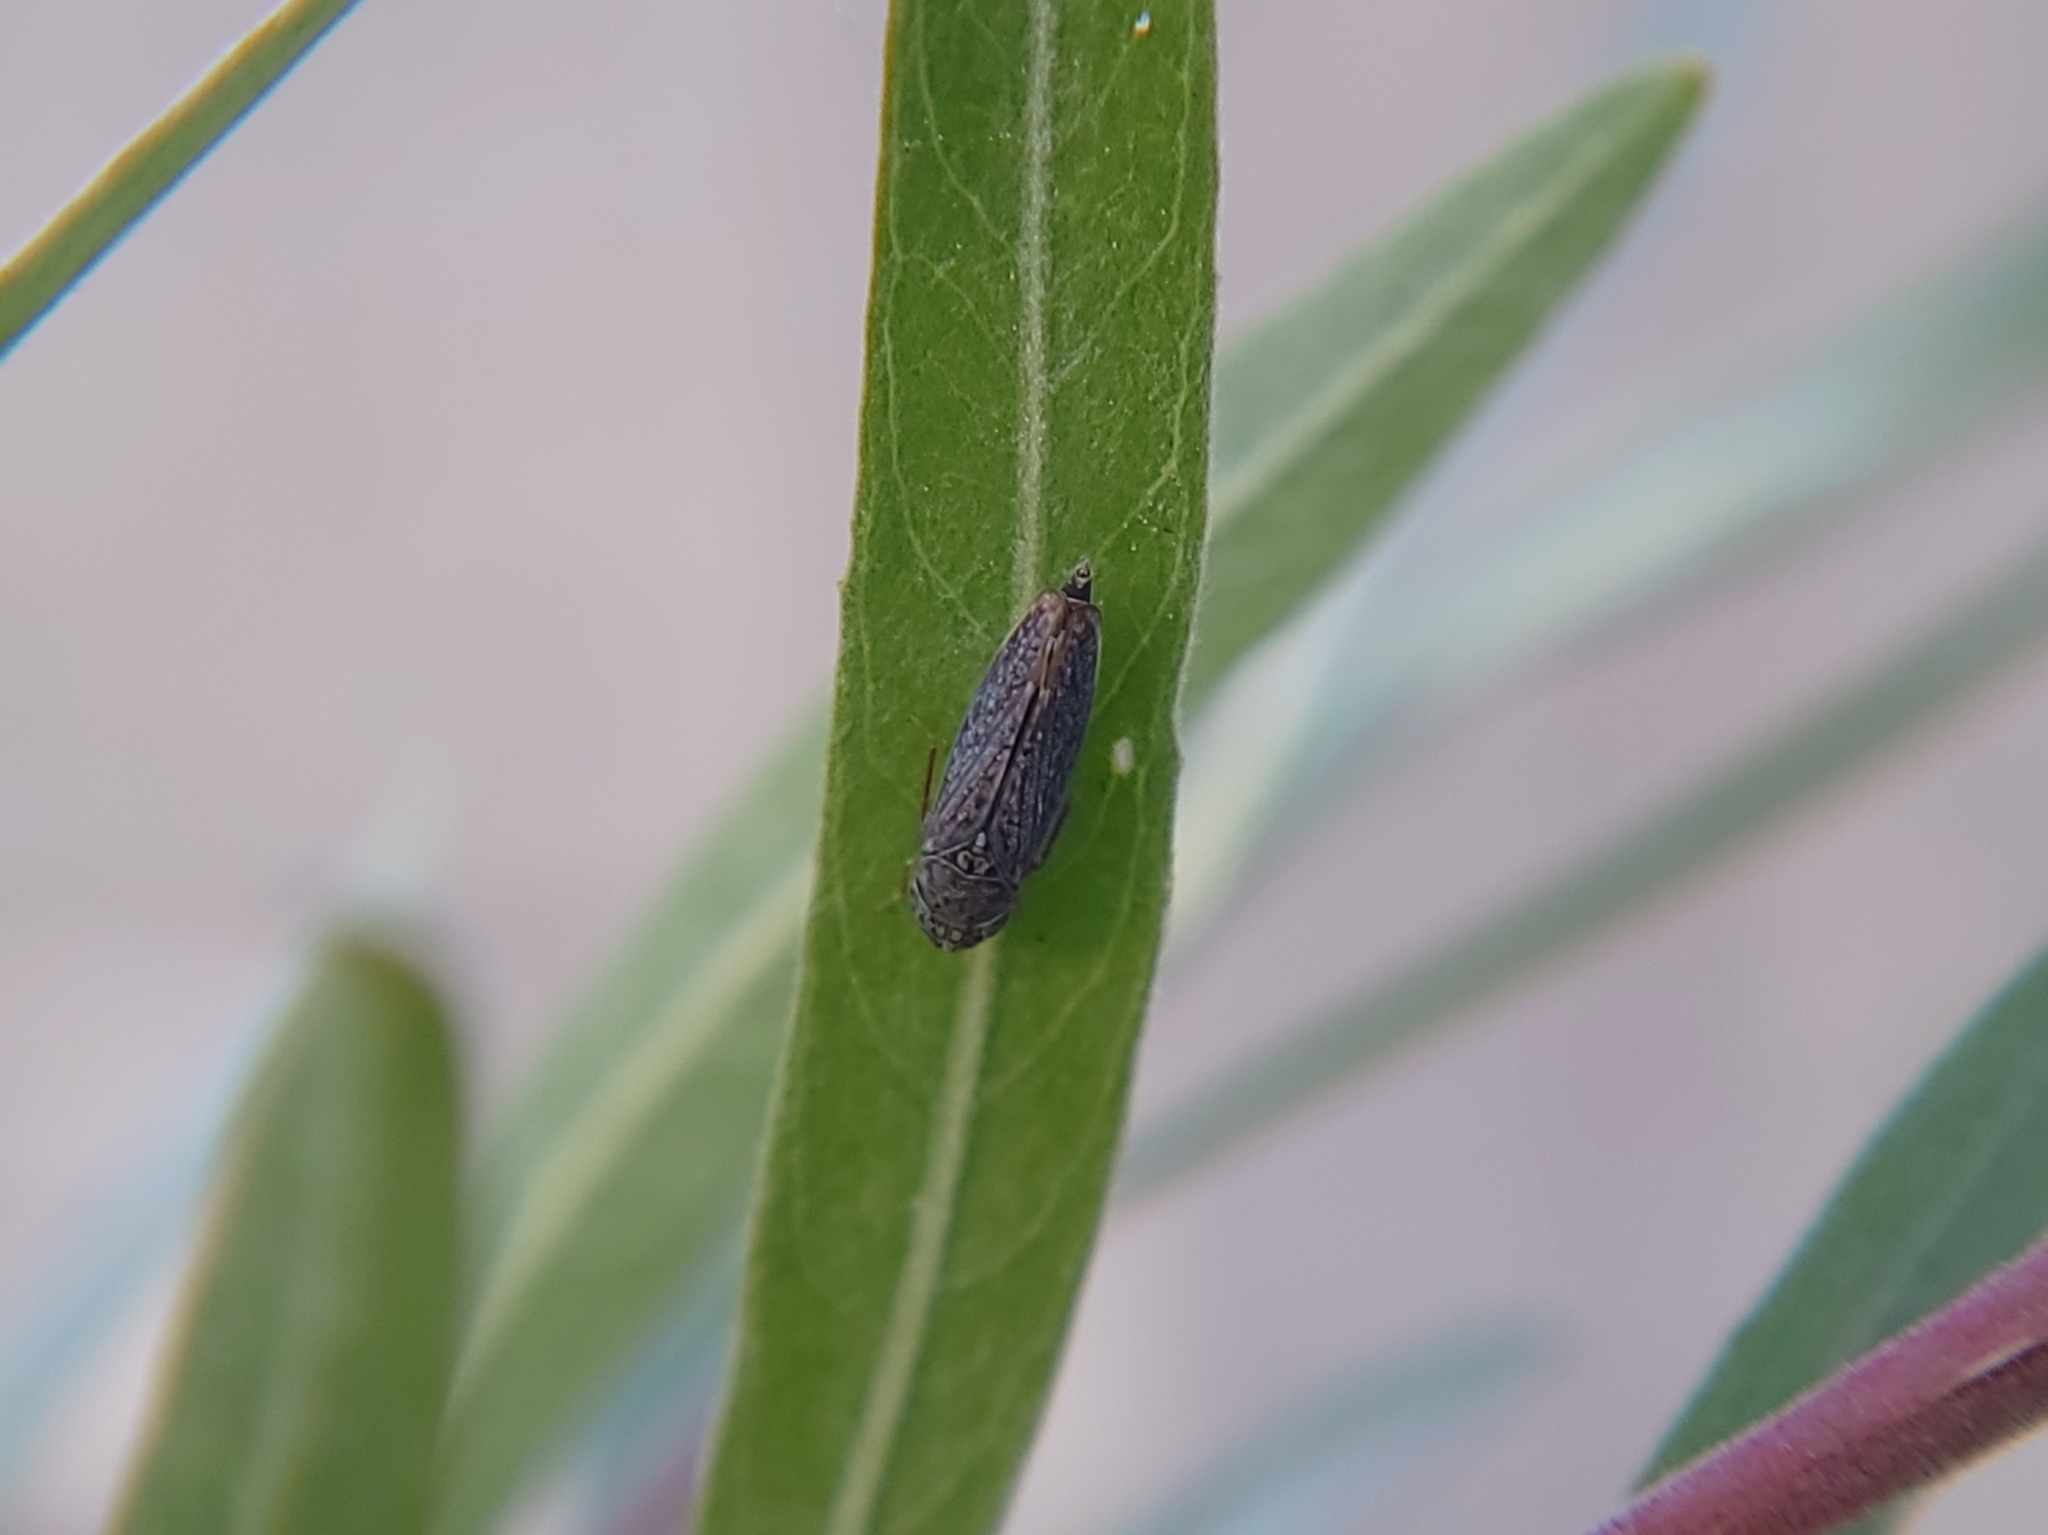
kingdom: Animalia
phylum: Arthropoda
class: Insecta
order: Hemiptera
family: Cicadellidae
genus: Graphocephala
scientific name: Graphocephala confluens
